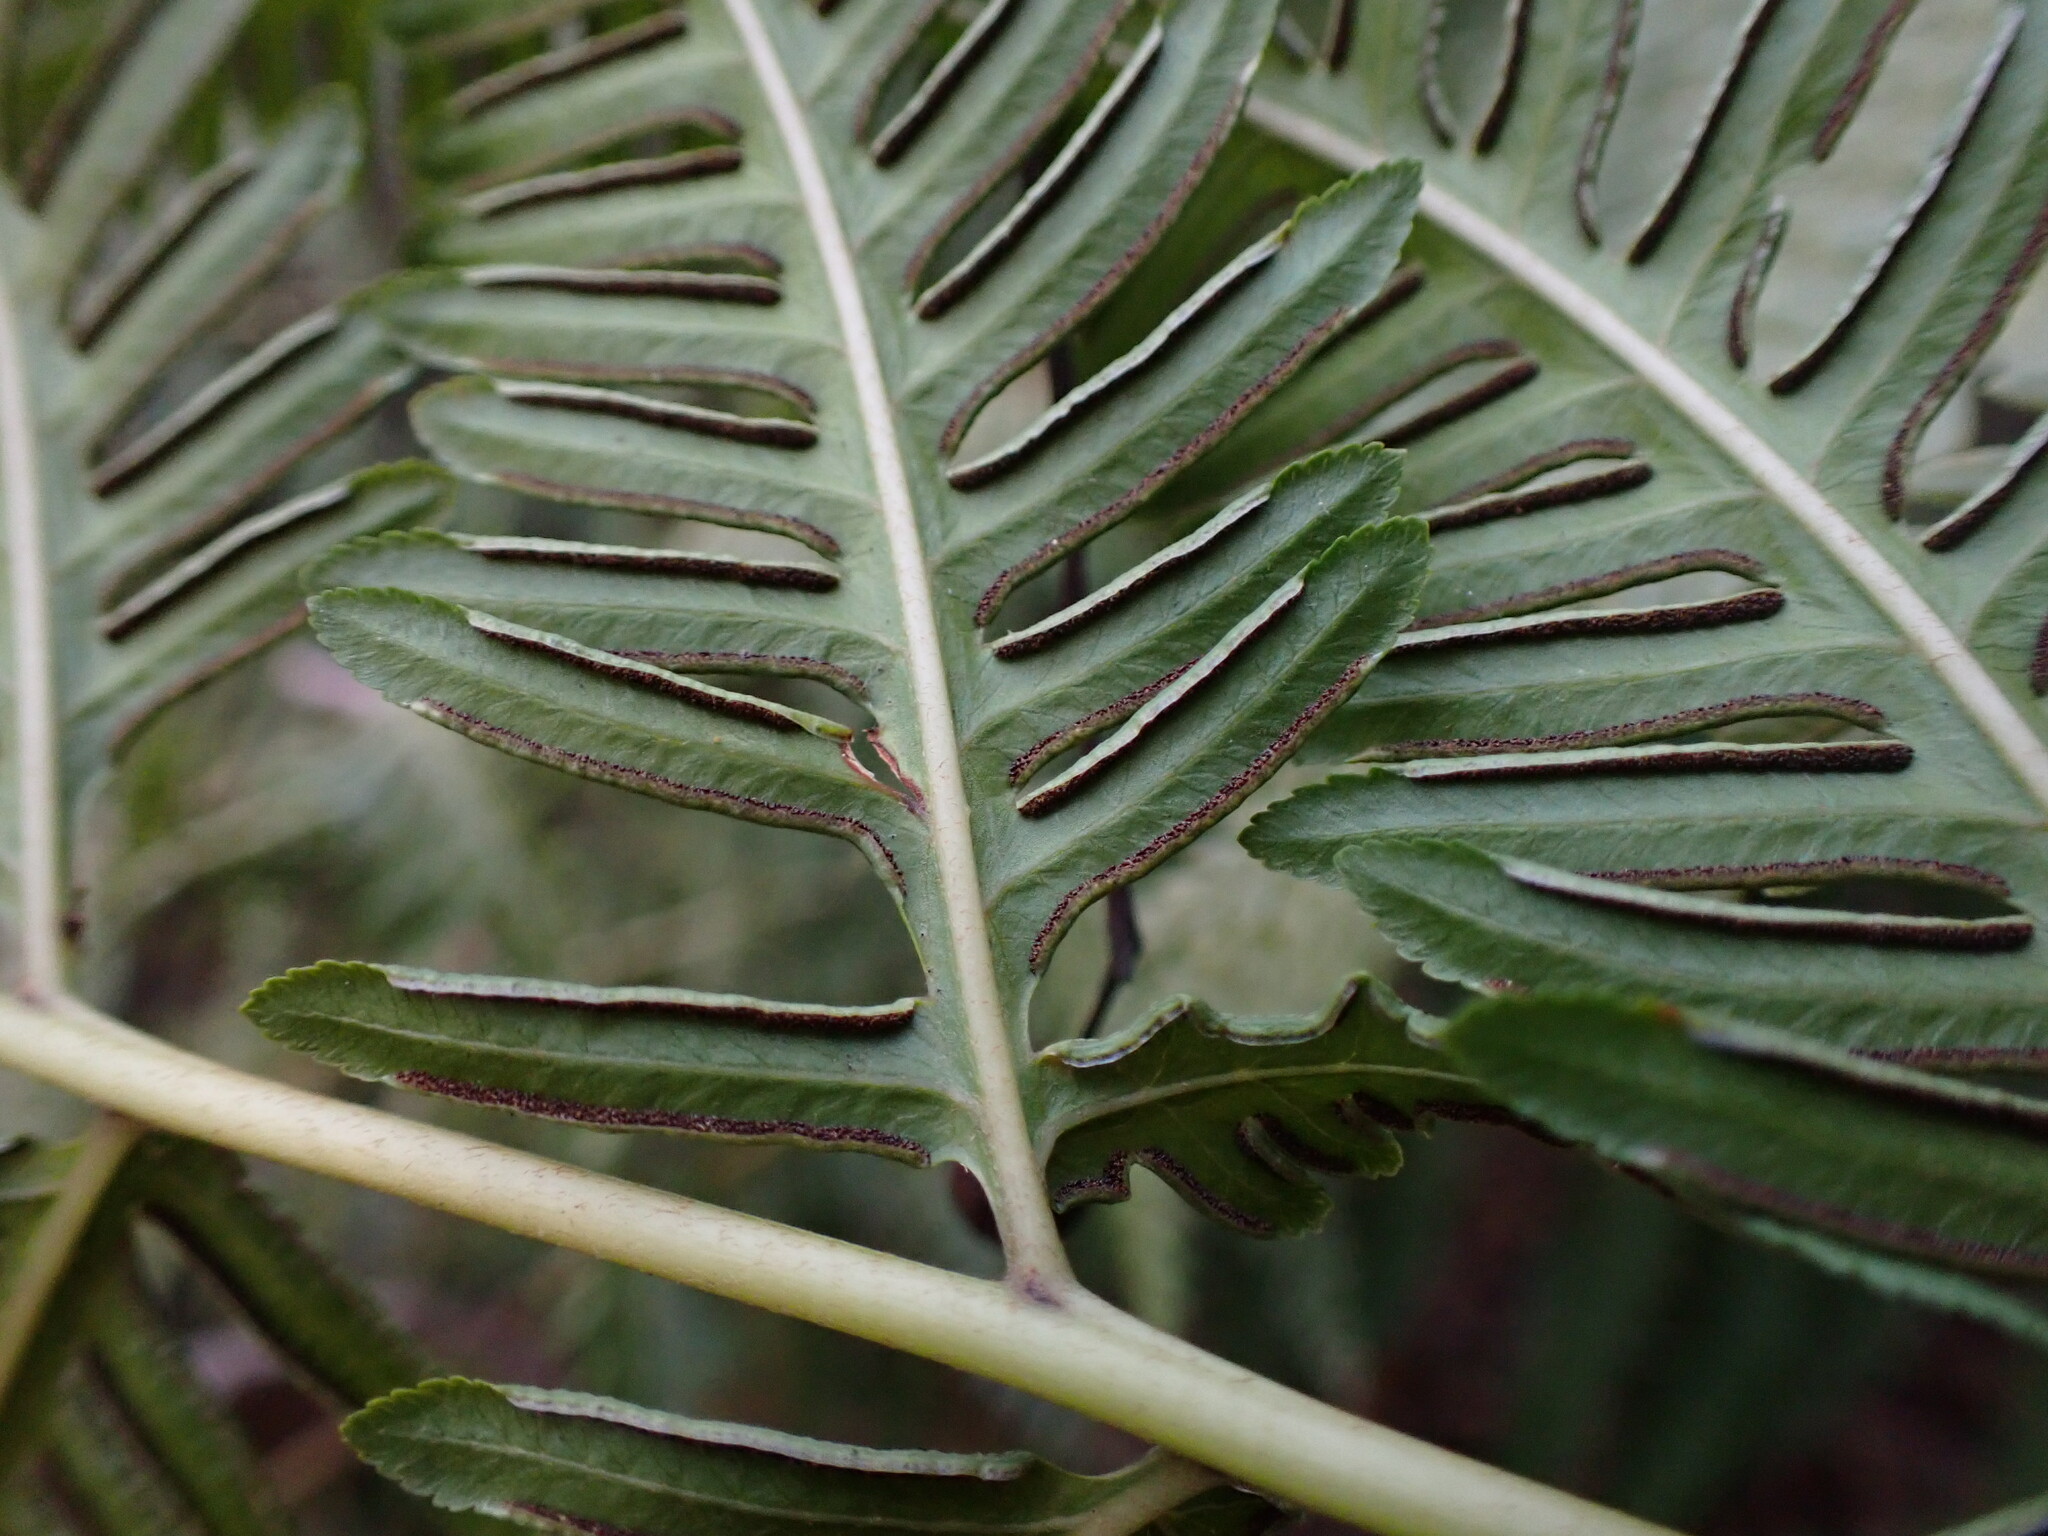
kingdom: Plantae
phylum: Tracheophyta
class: Polypodiopsida
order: Polypodiales
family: Pteridaceae
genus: Pteris
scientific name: Pteris wallichiana
